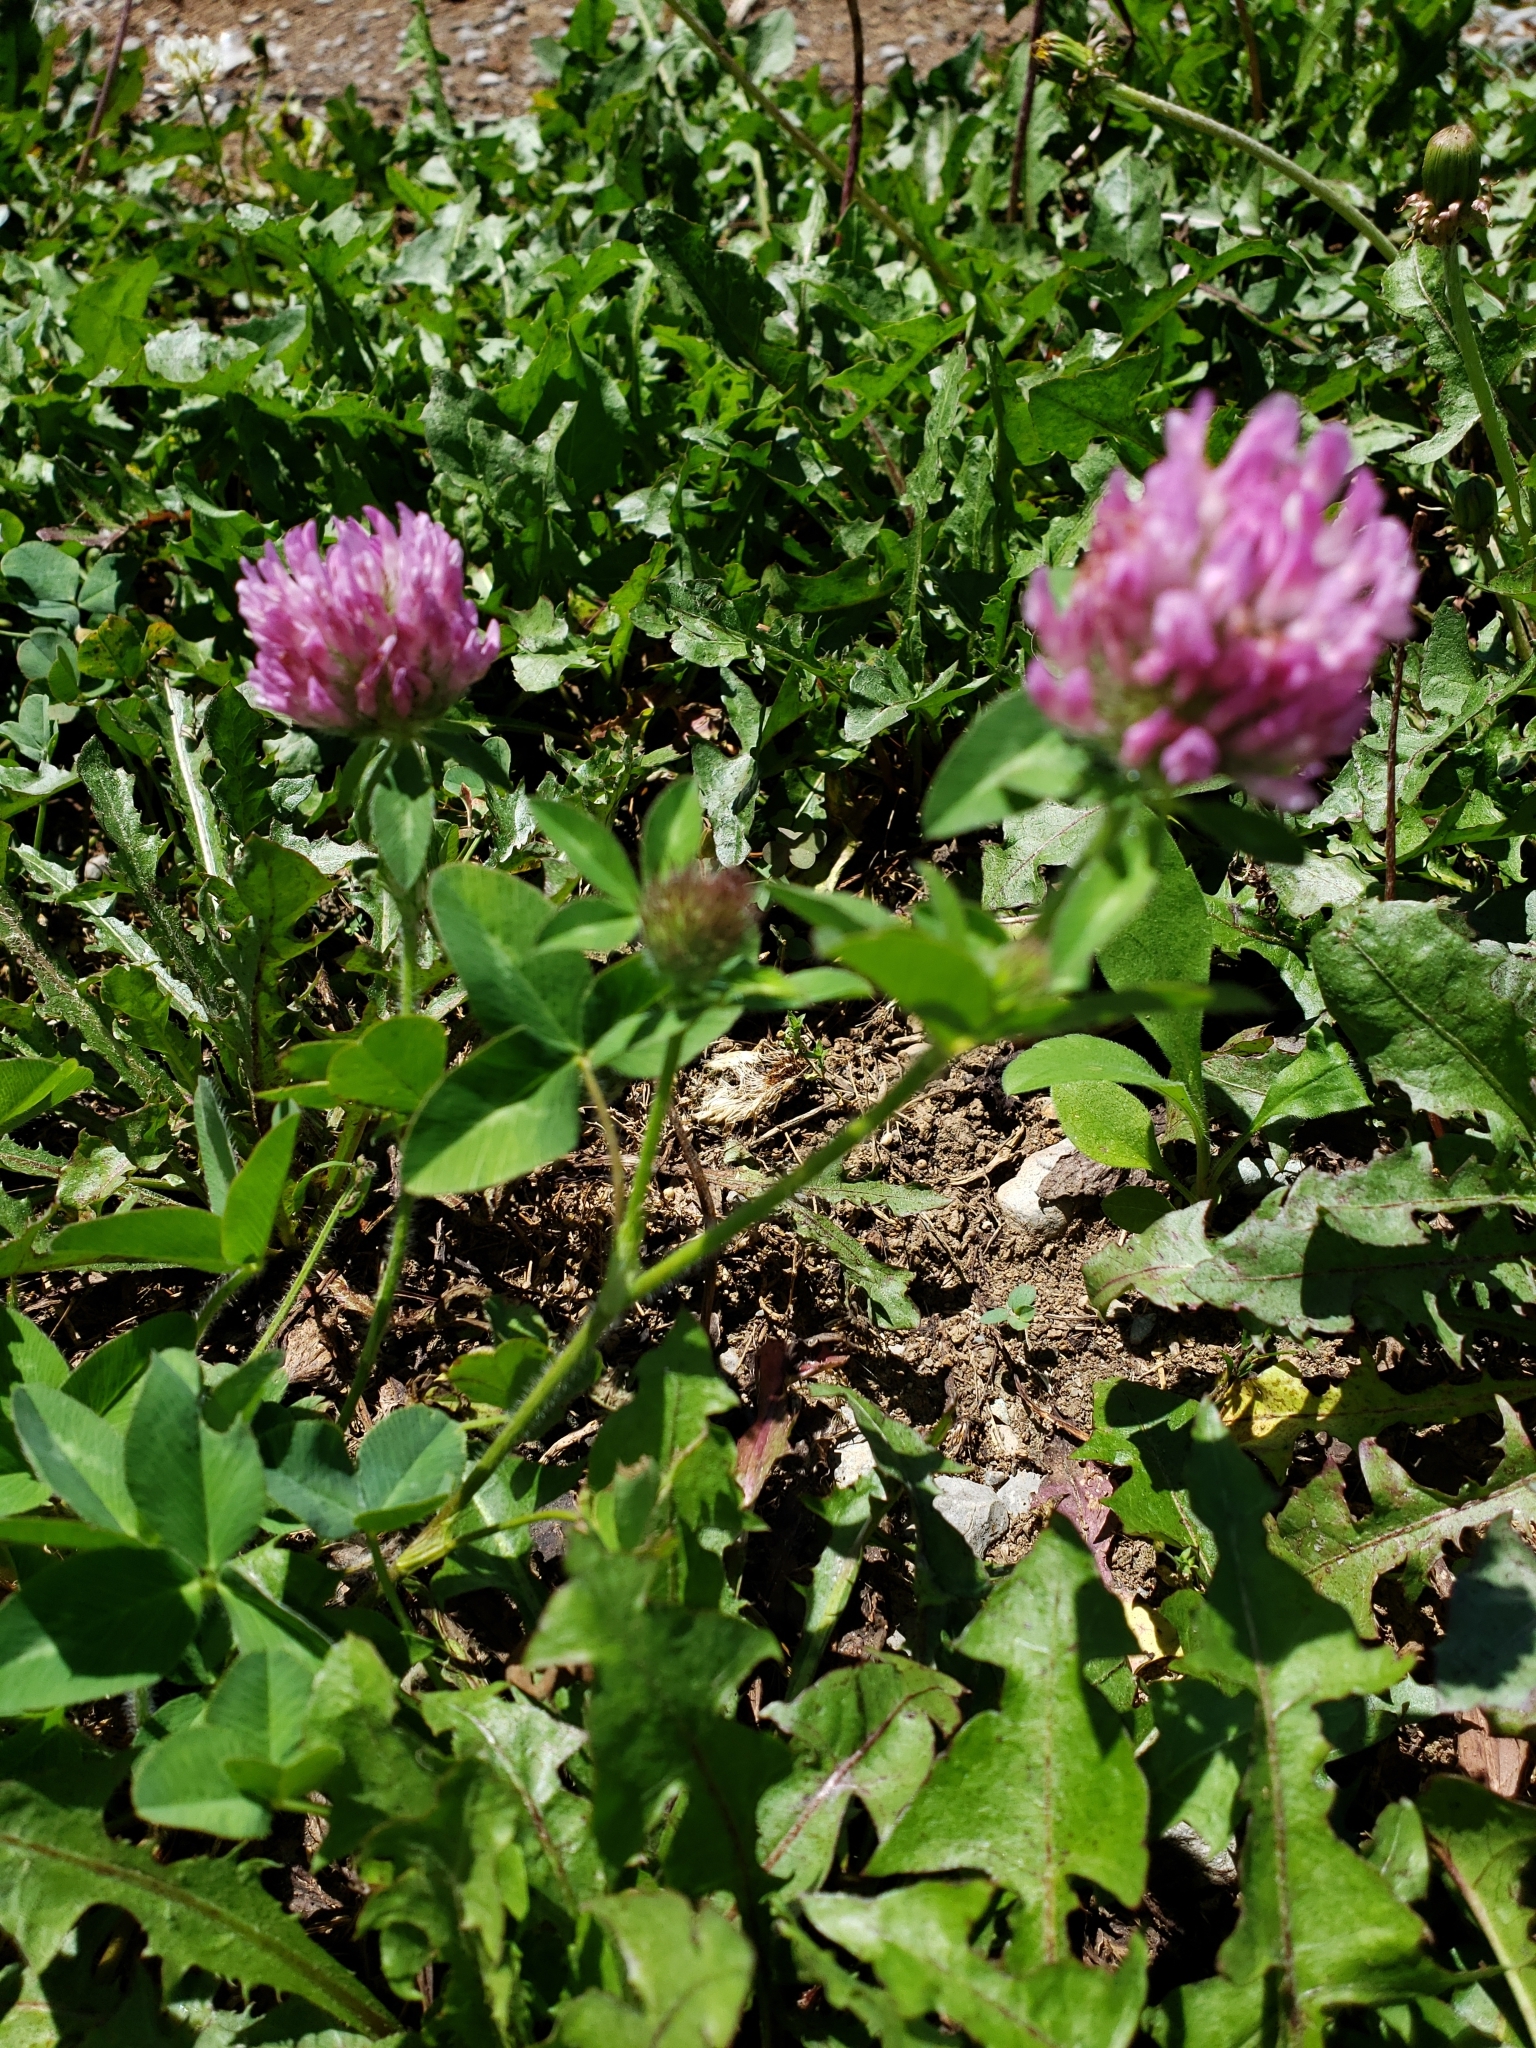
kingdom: Plantae
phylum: Tracheophyta
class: Magnoliopsida
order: Fabales
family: Fabaceae
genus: Trifolium
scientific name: Trifolium pratense
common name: Red clover
